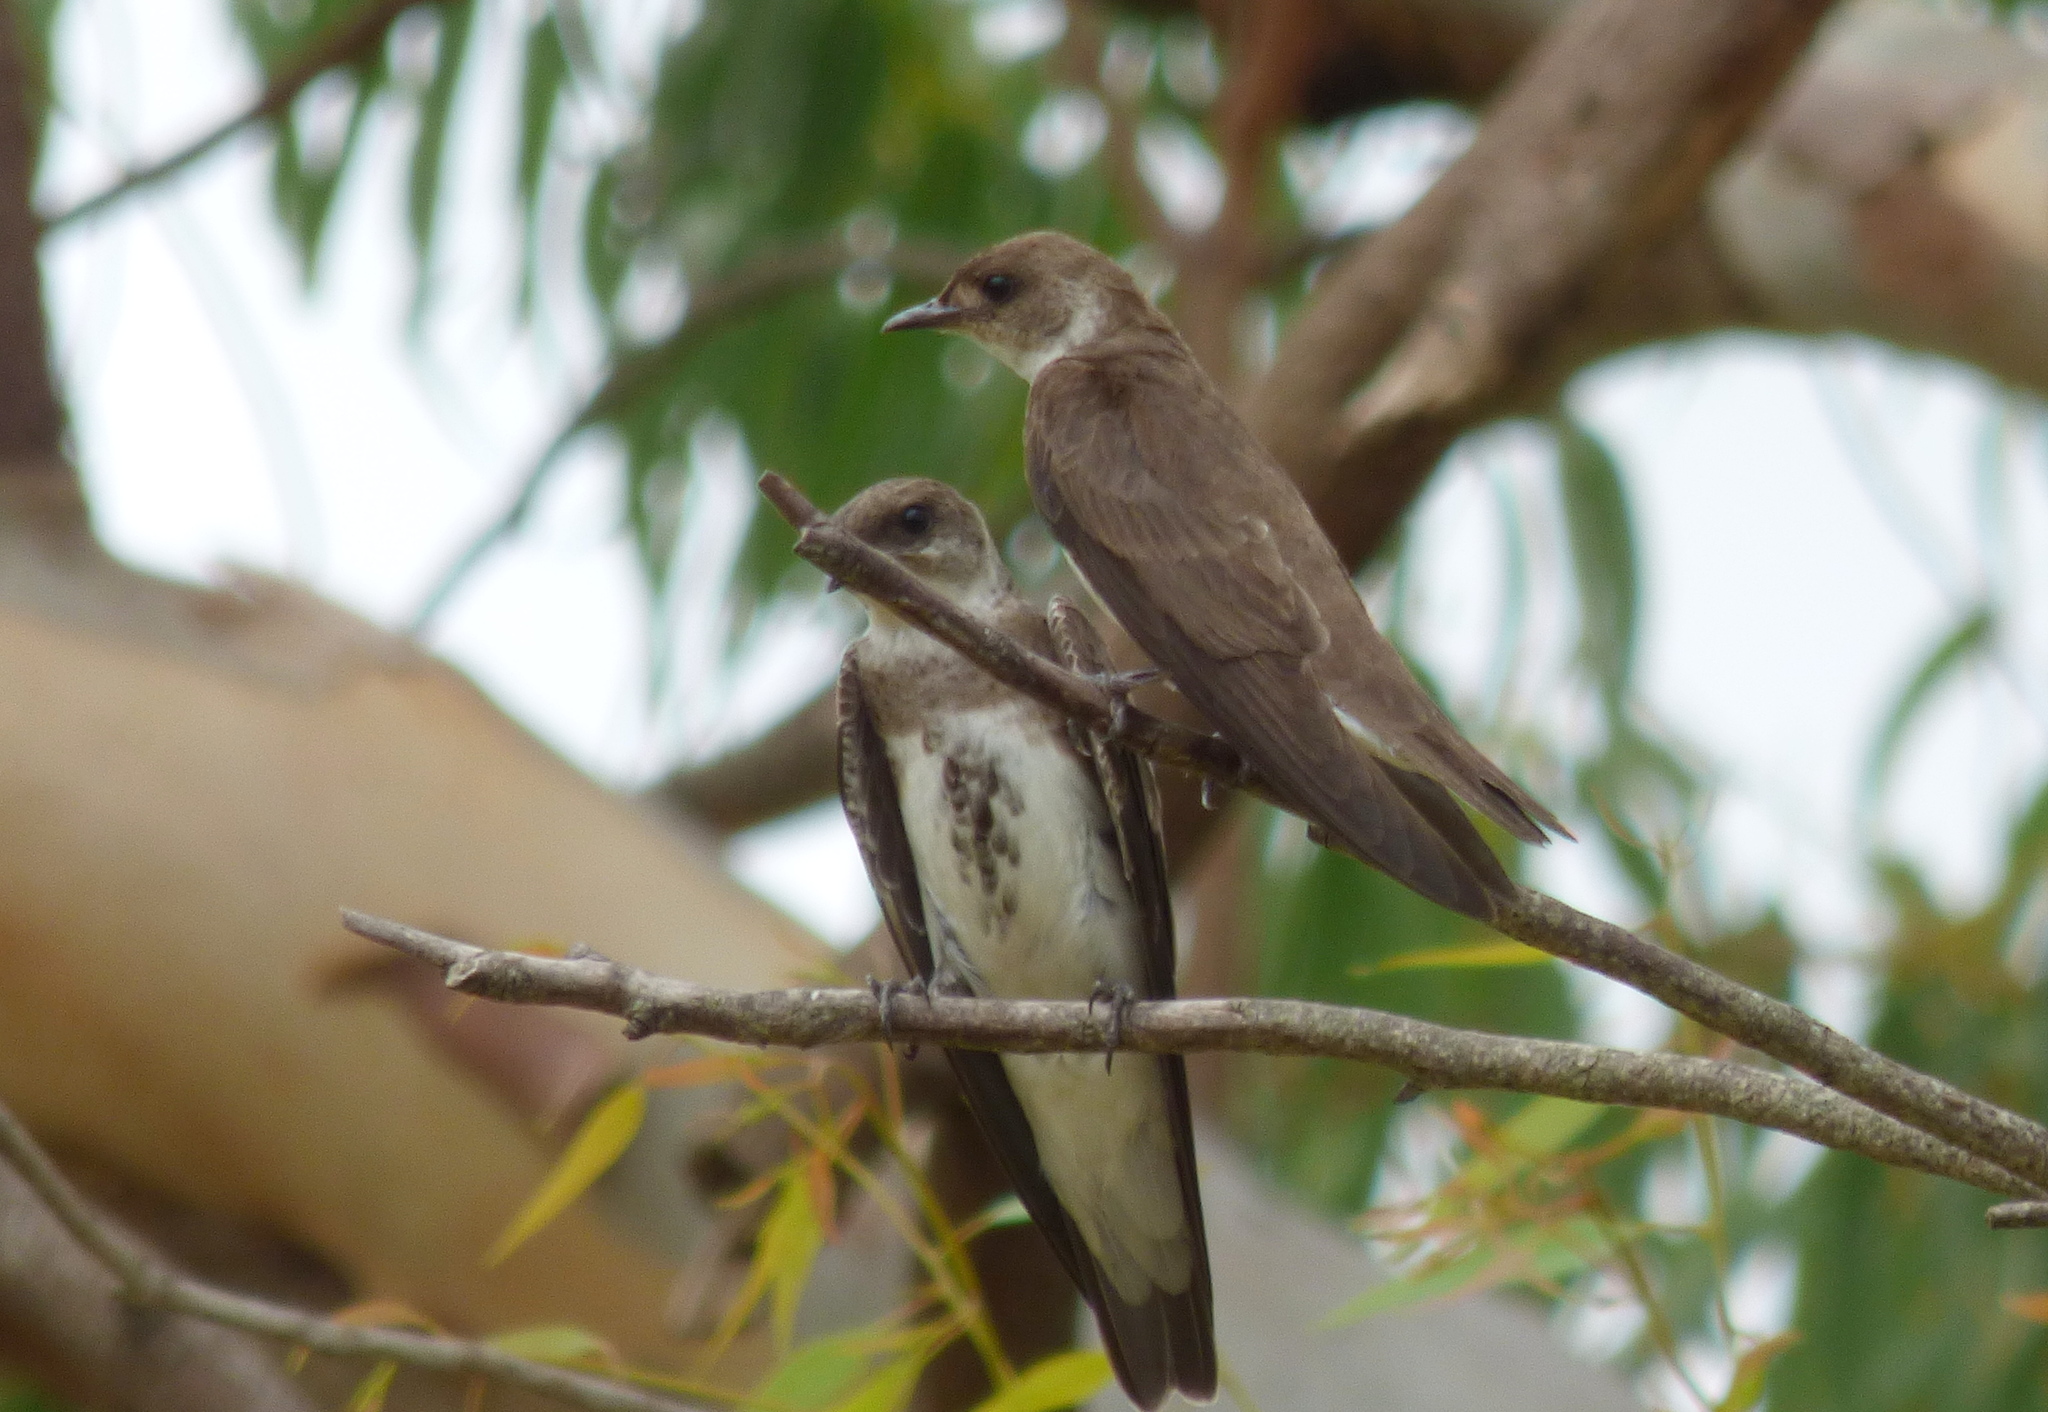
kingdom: Animalia
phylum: Chordata
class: Aves
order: Passeriformes
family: Hirundinidae
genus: Progne
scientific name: Progne tapera
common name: Brown-chested martin
